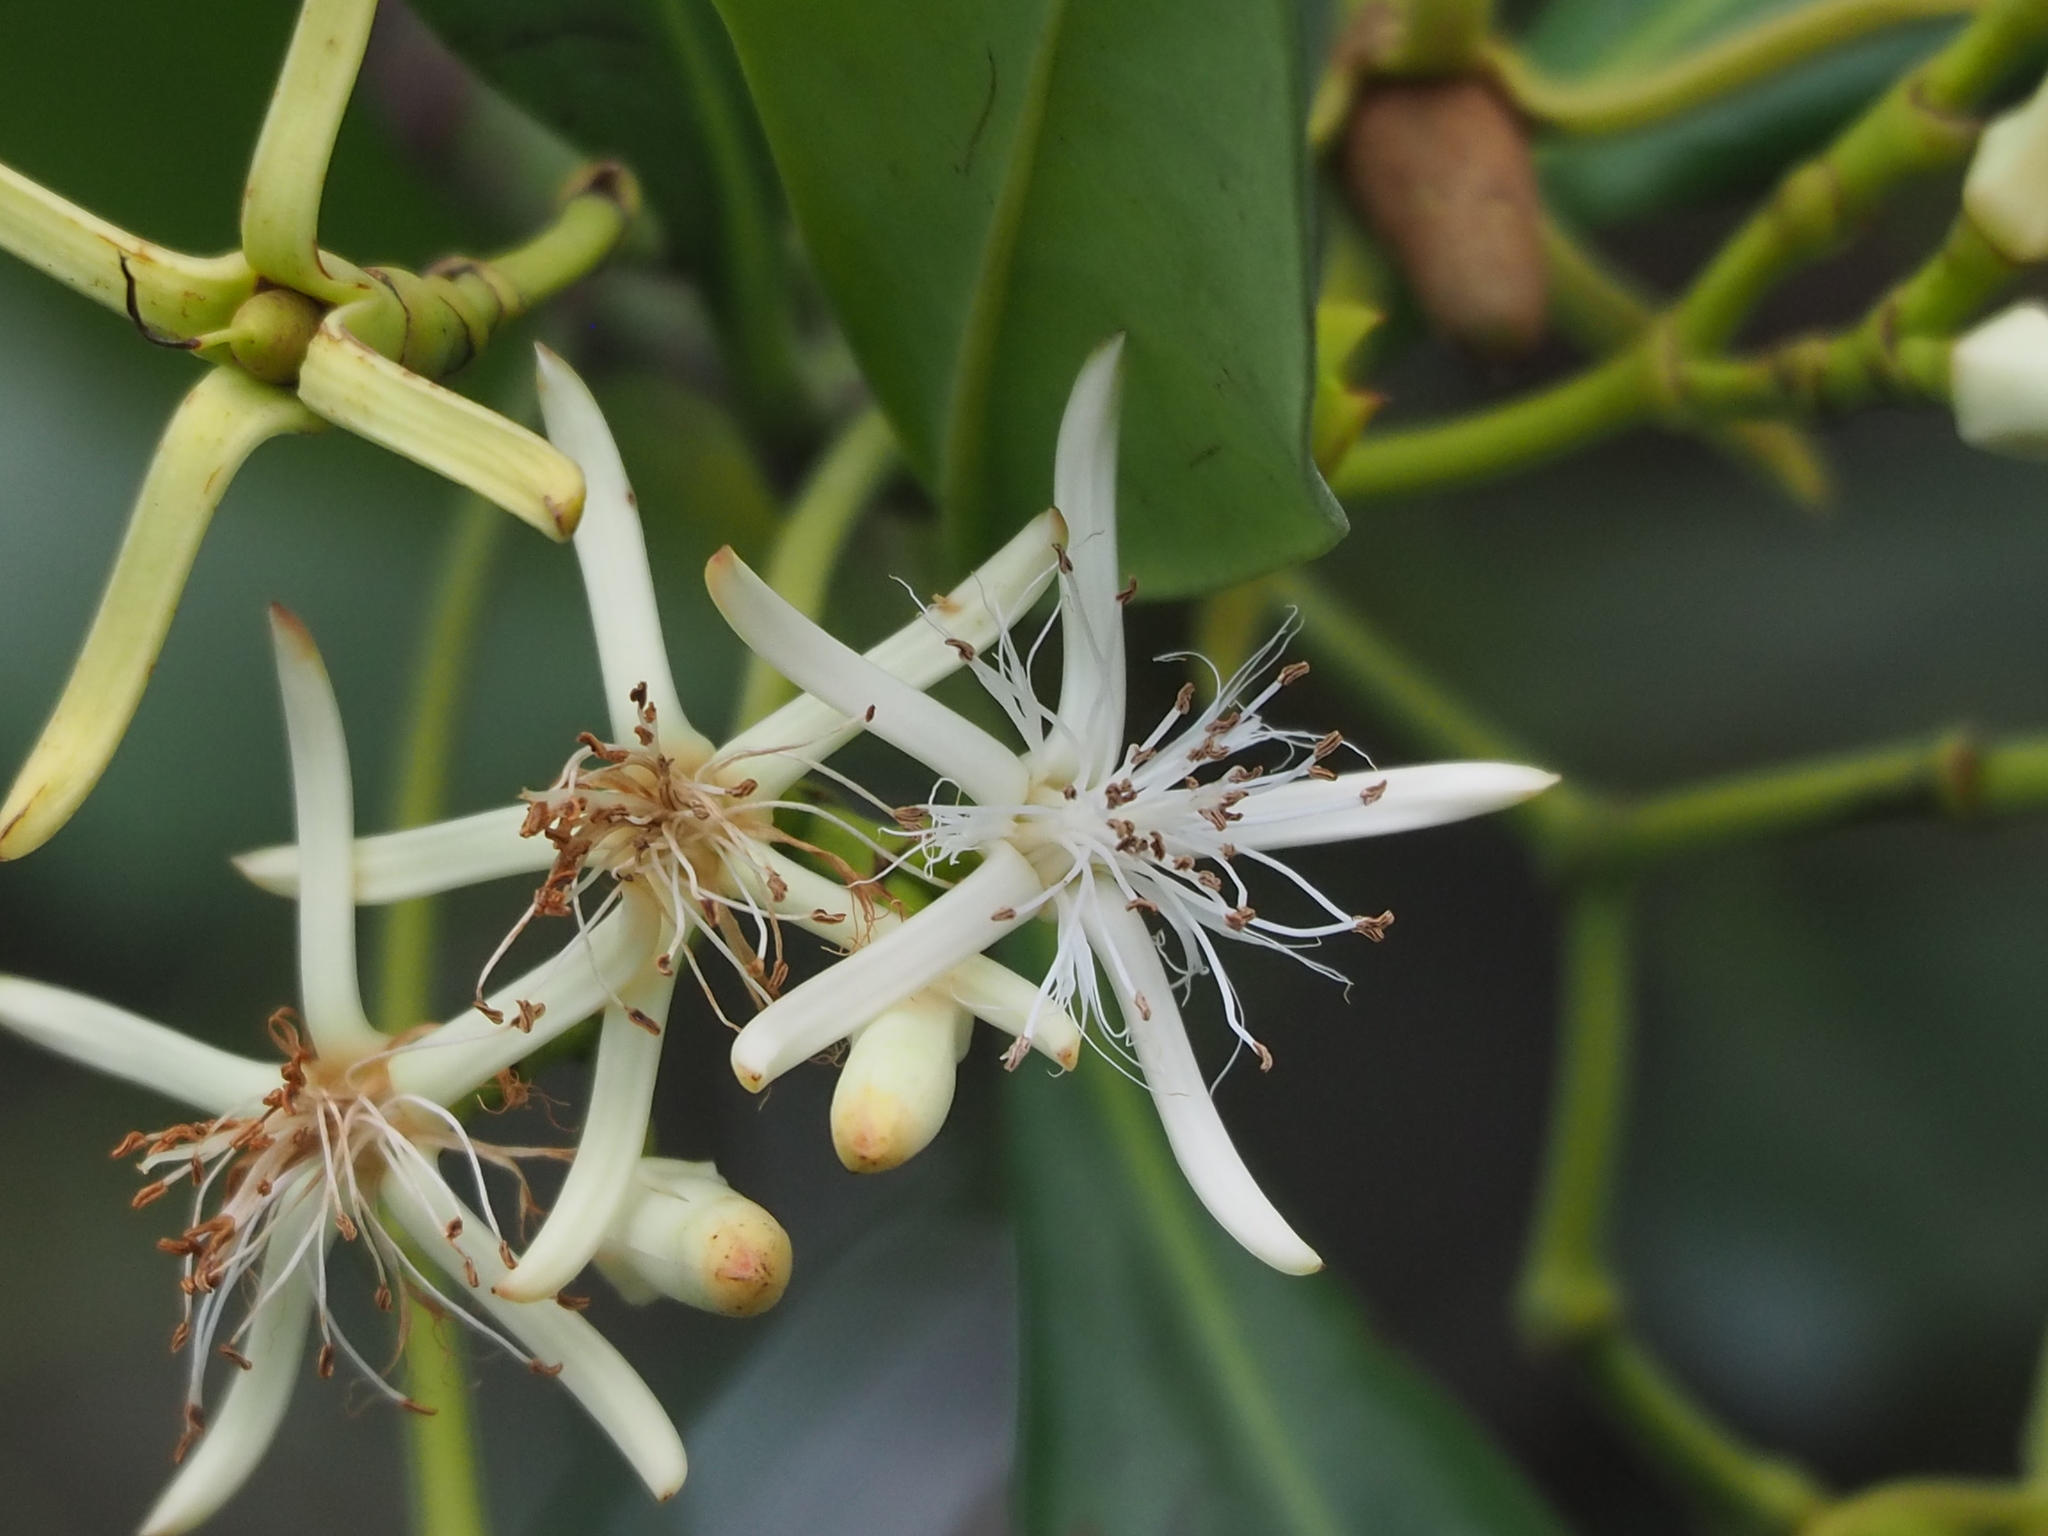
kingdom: Plantae
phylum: Tracheophyta
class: Magnoliopsida
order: Malpighiales
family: Rhizophoraceae
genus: Kandelia
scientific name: Kandelia obovata
